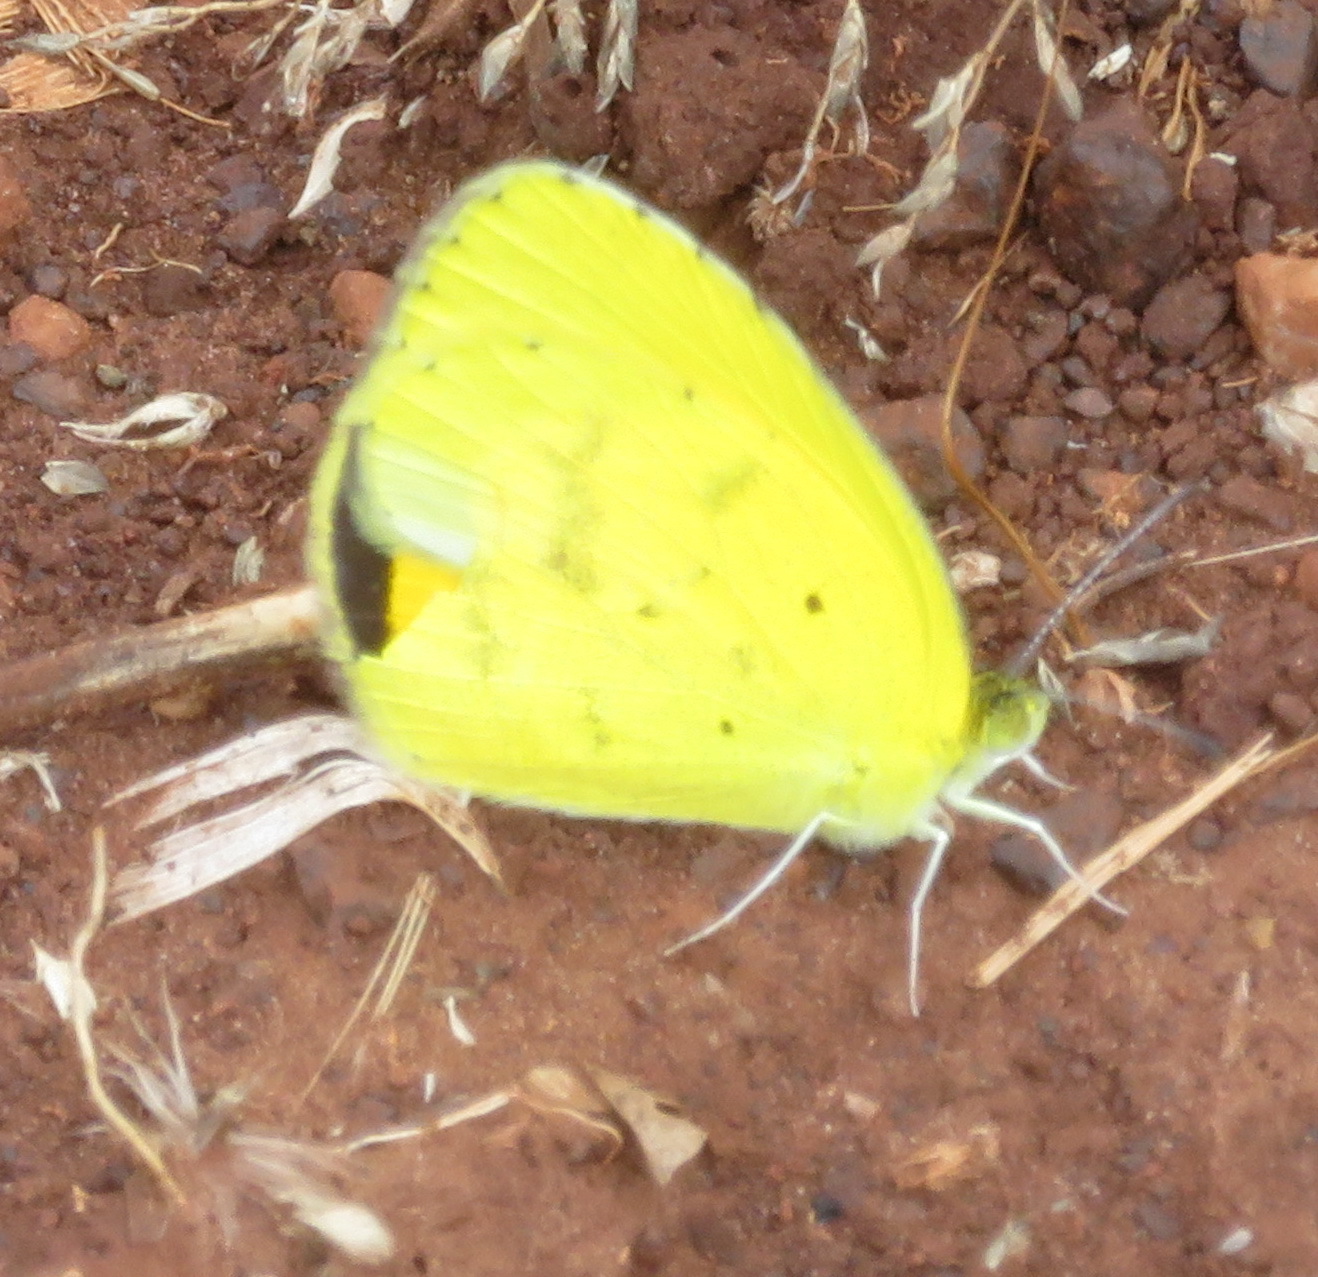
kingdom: Animalia
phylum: Arthropoda
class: Insecta
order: Lepidoptera
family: Pieridae
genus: Eurema
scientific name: Eurema brigitta
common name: Small grass yellow
